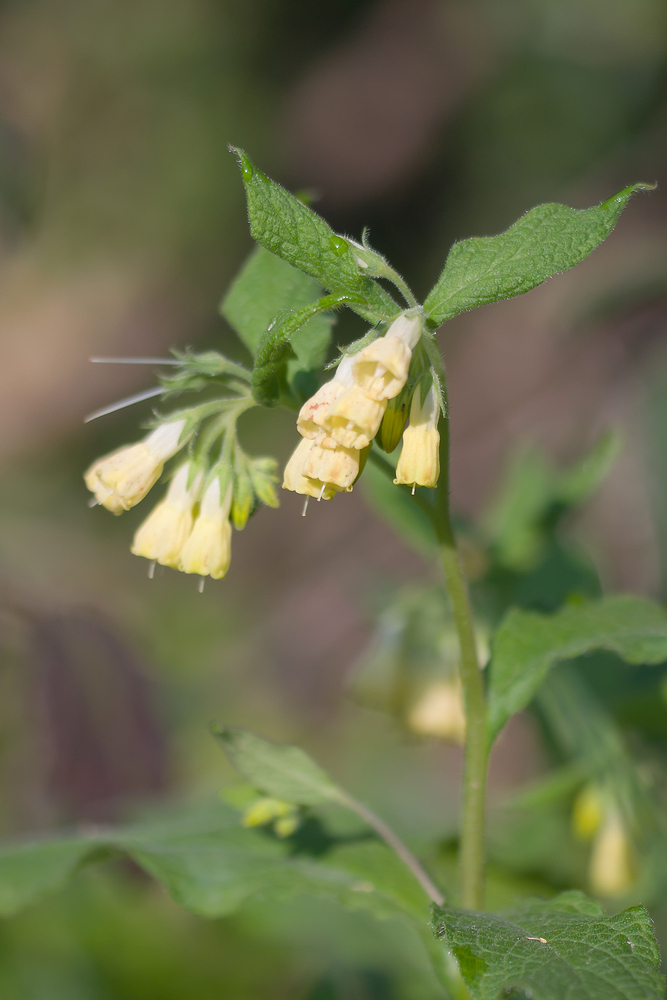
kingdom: Plantae
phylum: Tracheophyta
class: Magnoliopsida
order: Boraginales
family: Boraginaceae
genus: Symphytum
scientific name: Symphytum tuberosum
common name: Tuberous comfrey
